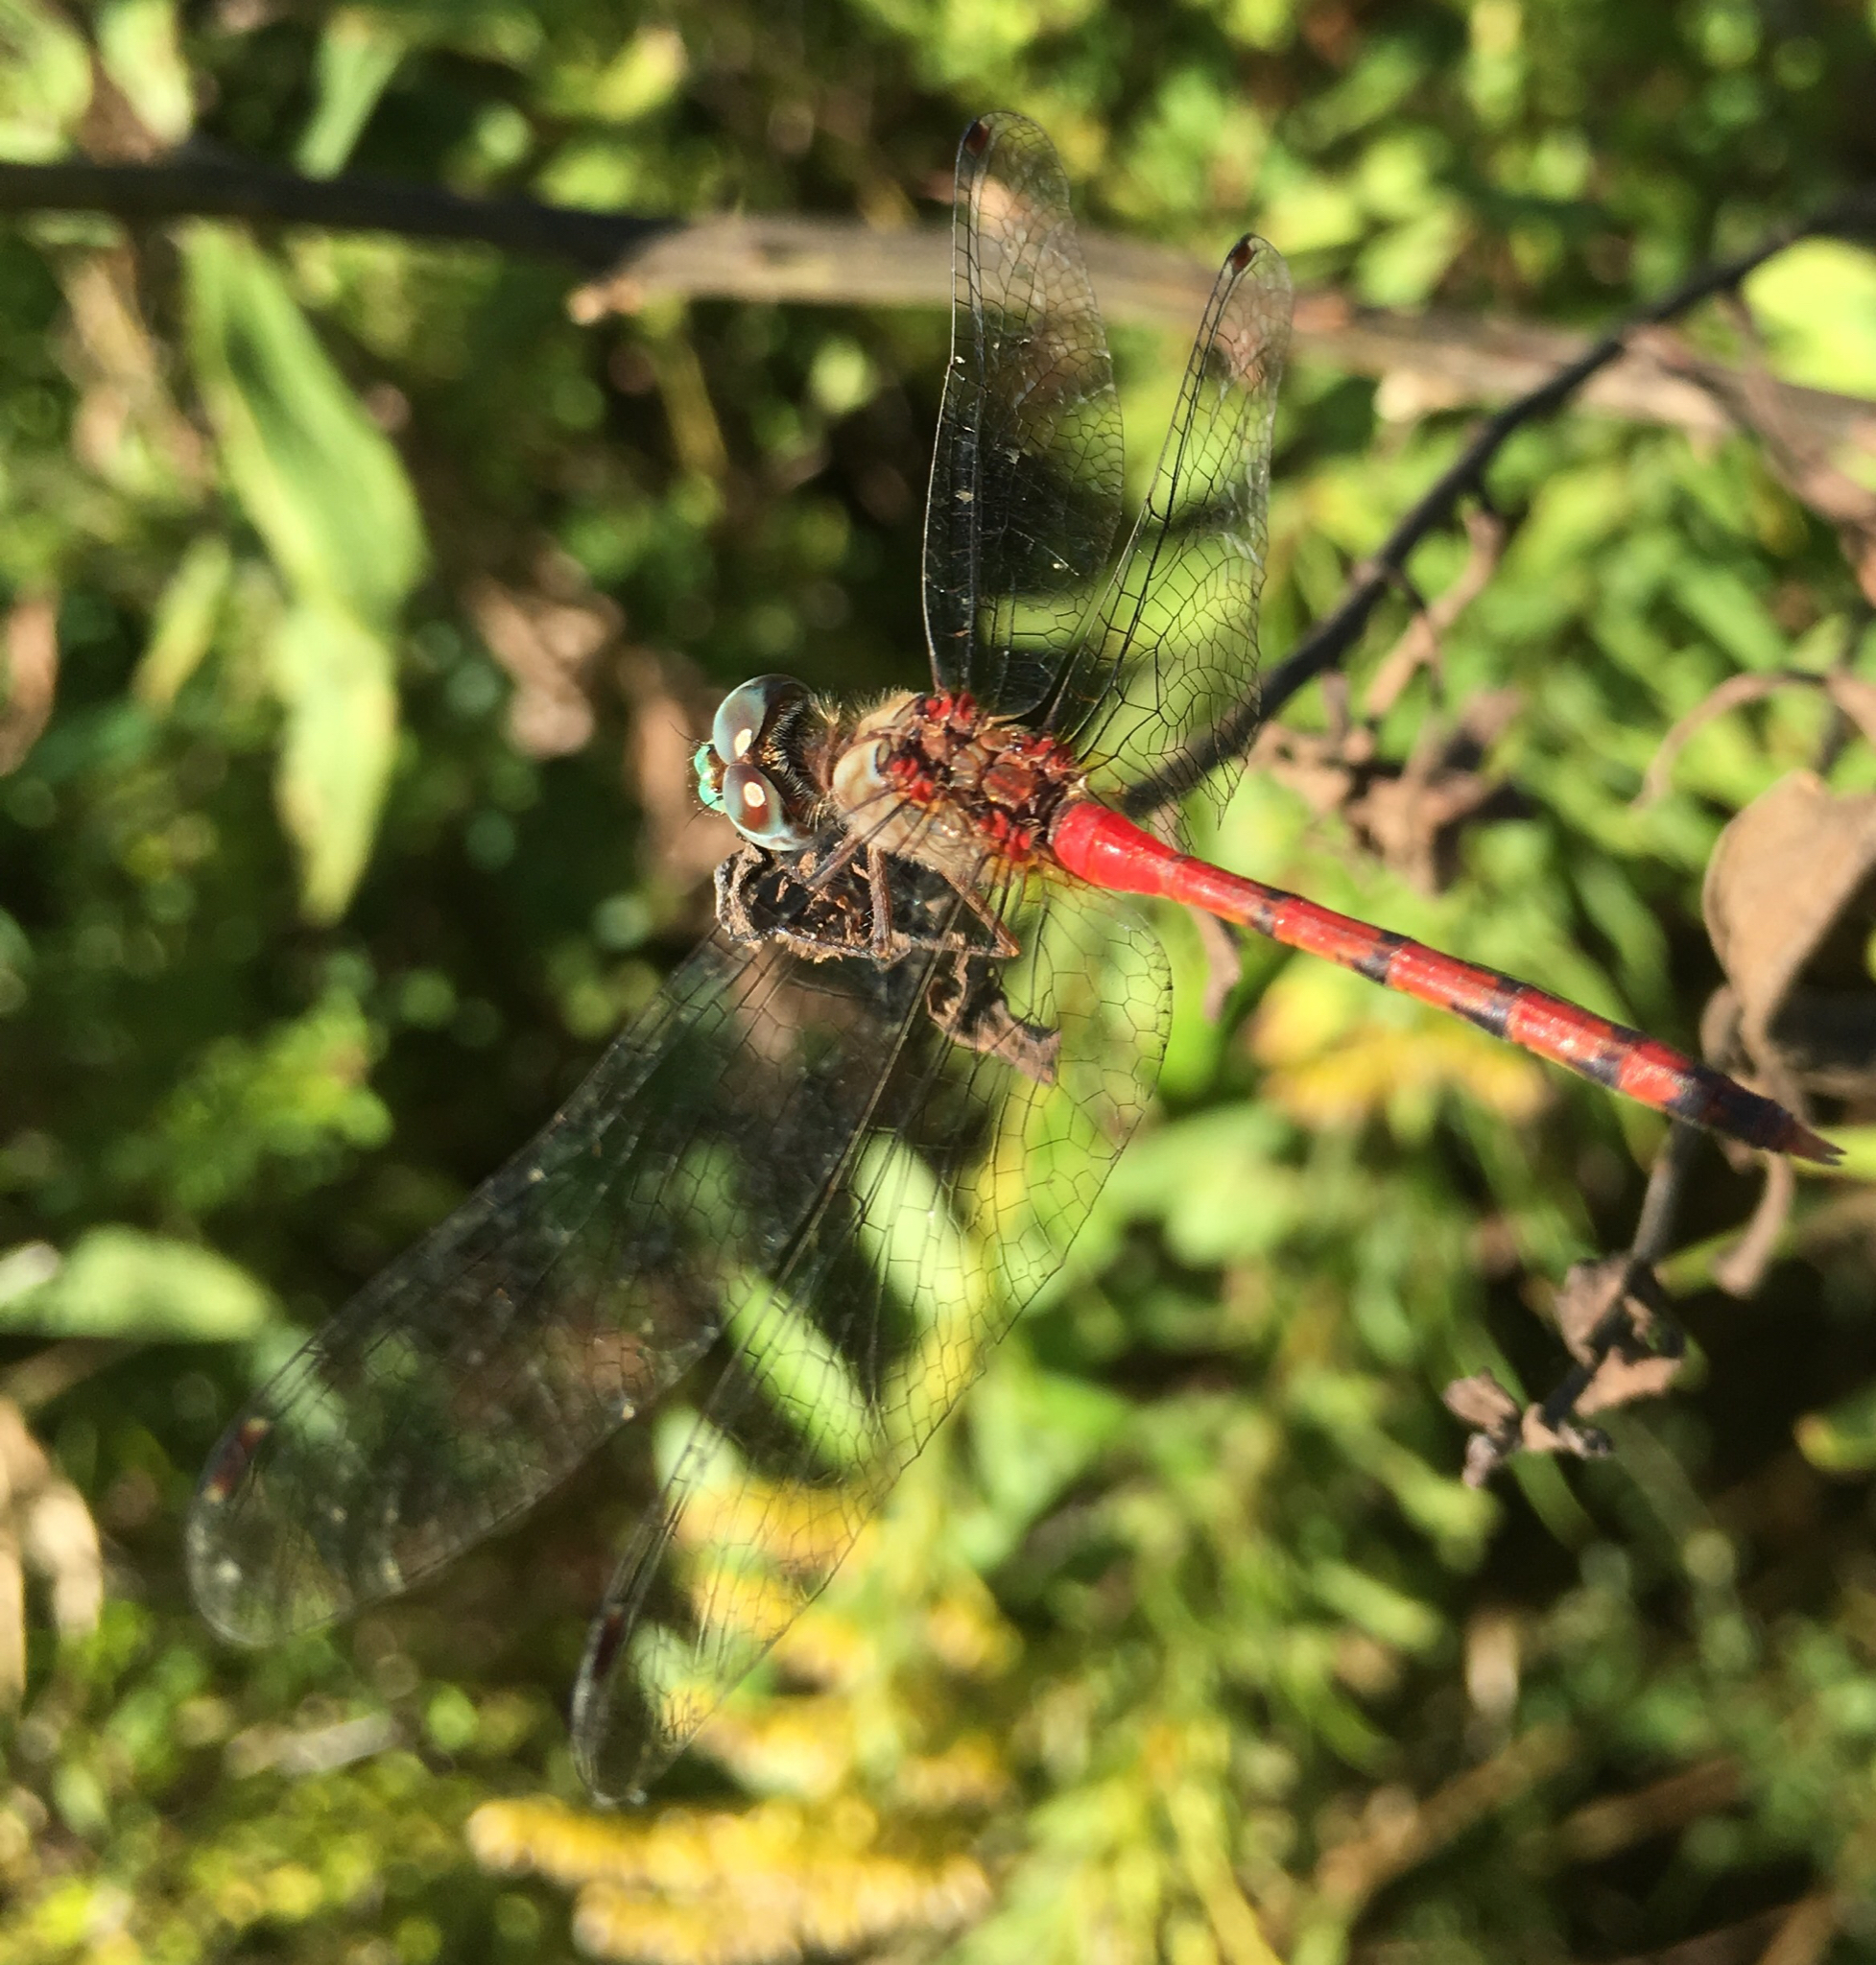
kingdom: Animalia
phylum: Arthropoda
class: Insecta
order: Odonata
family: Libellulidae
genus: Sympetrum
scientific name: Sympetrum ambiguum
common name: Blue-faced meadowhawk
